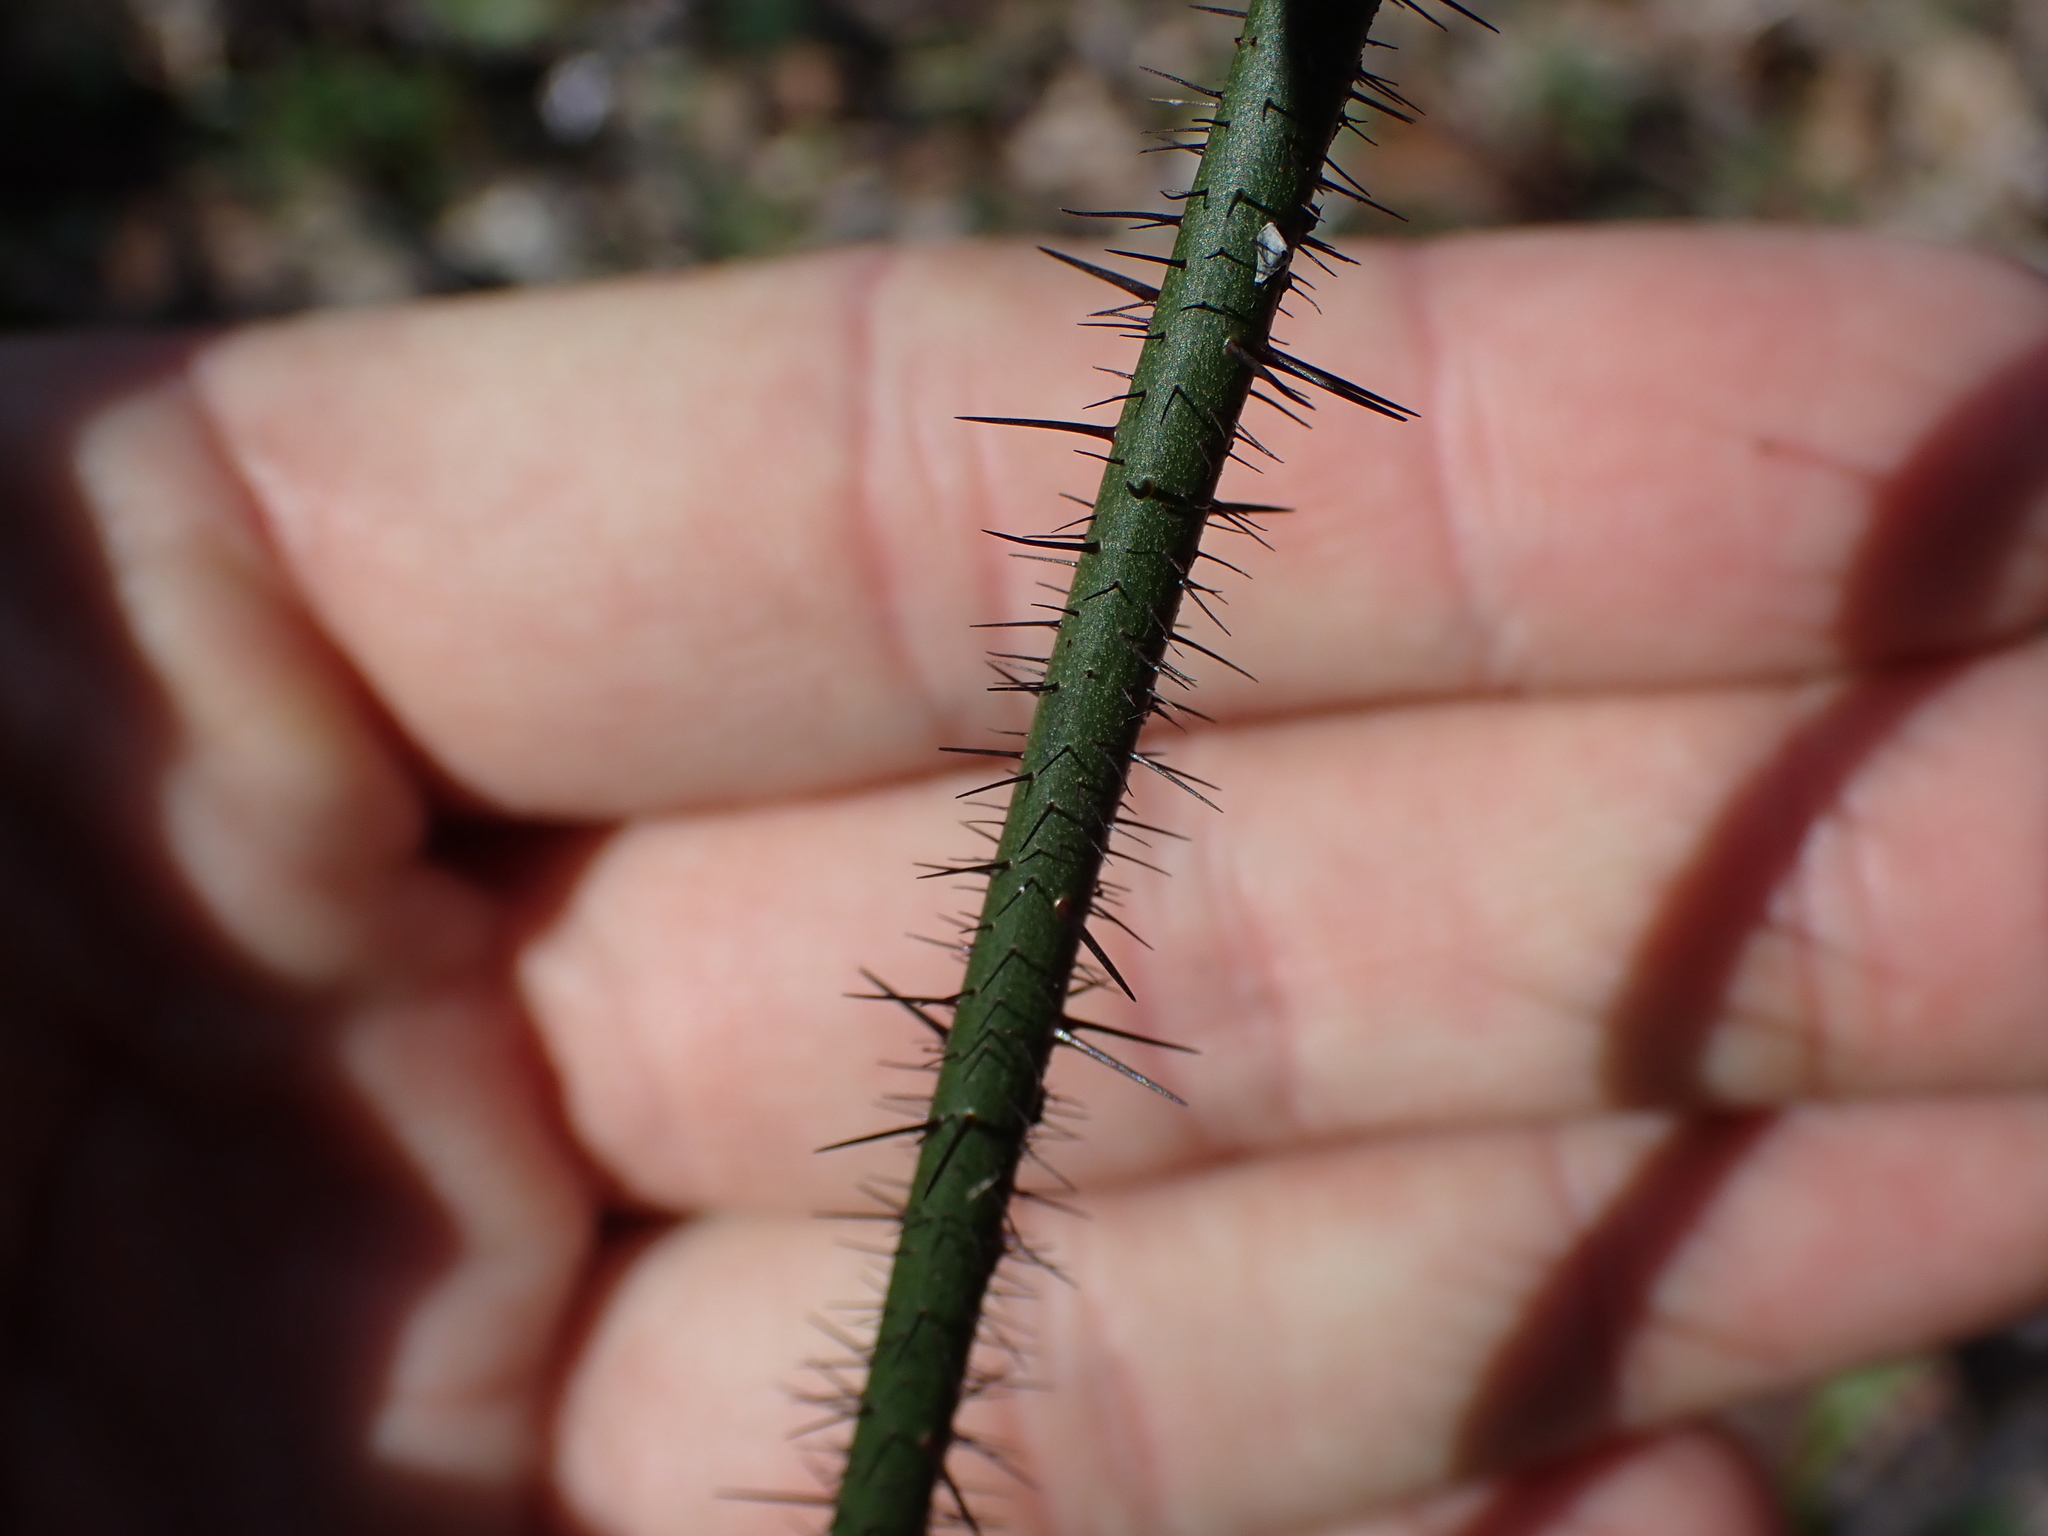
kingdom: Plantae
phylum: Tracheophyta
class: Liliopsida
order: Liliales
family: Smilacaceae
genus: Smilax
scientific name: Smilax tamnoides
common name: Hellfetter
